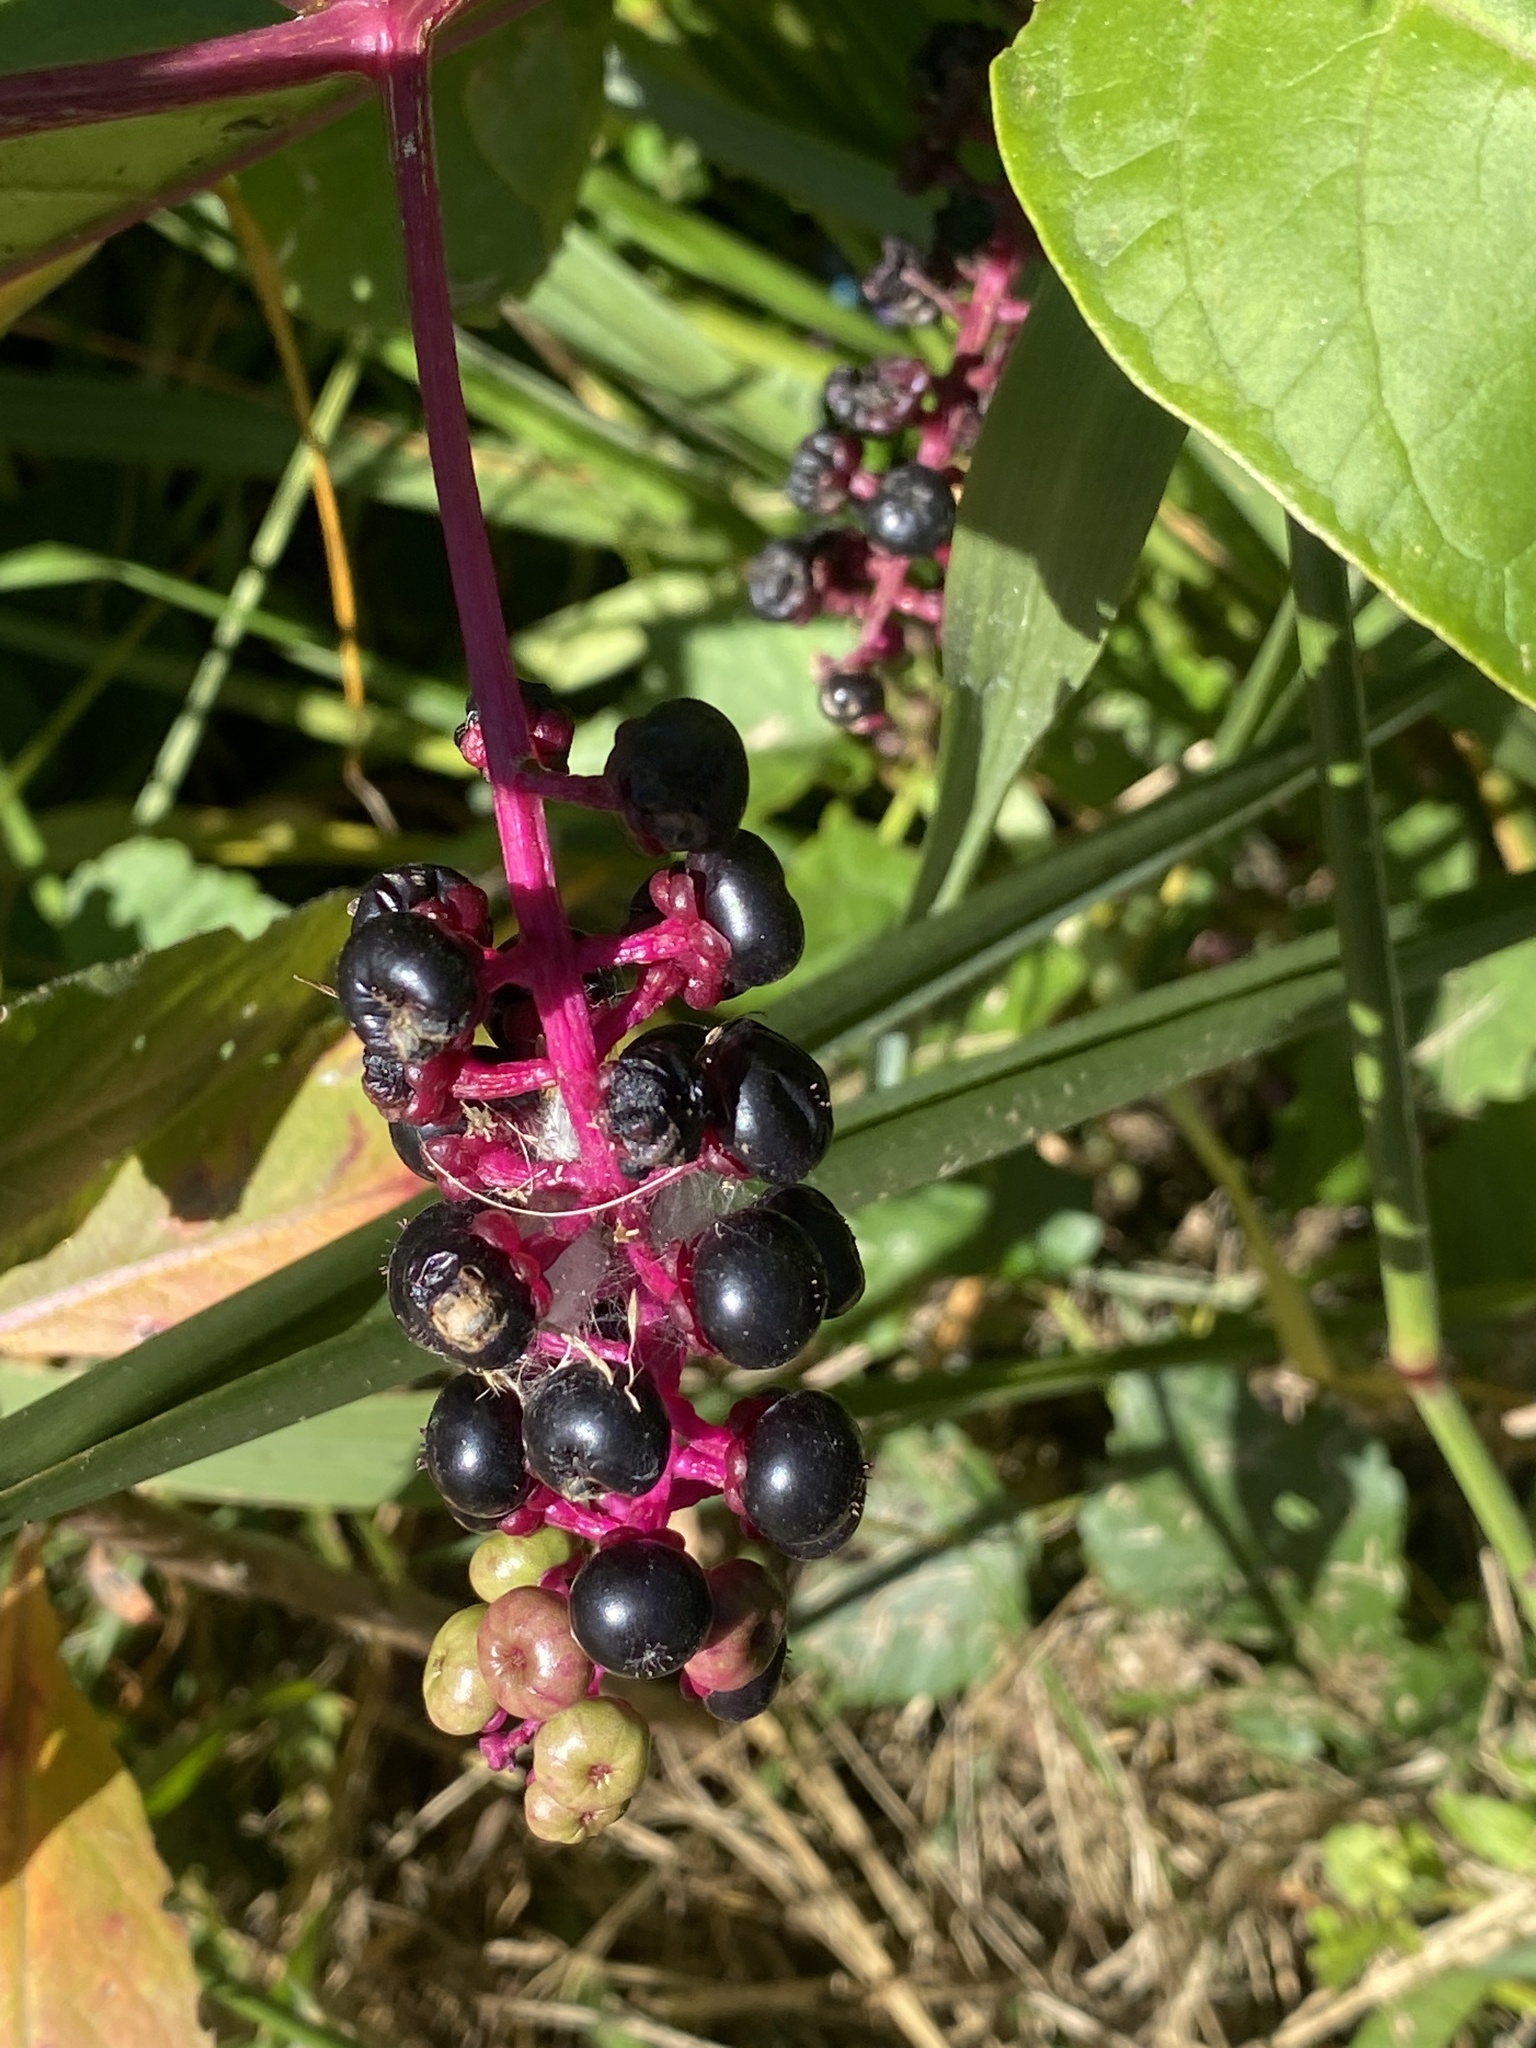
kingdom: Plantae
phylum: Tracheophyta
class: Magnoliopsida
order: Caryophyllales
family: Phytolaccaceae
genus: Phytolacca
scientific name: Phytolacca americana
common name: American pokeweed
